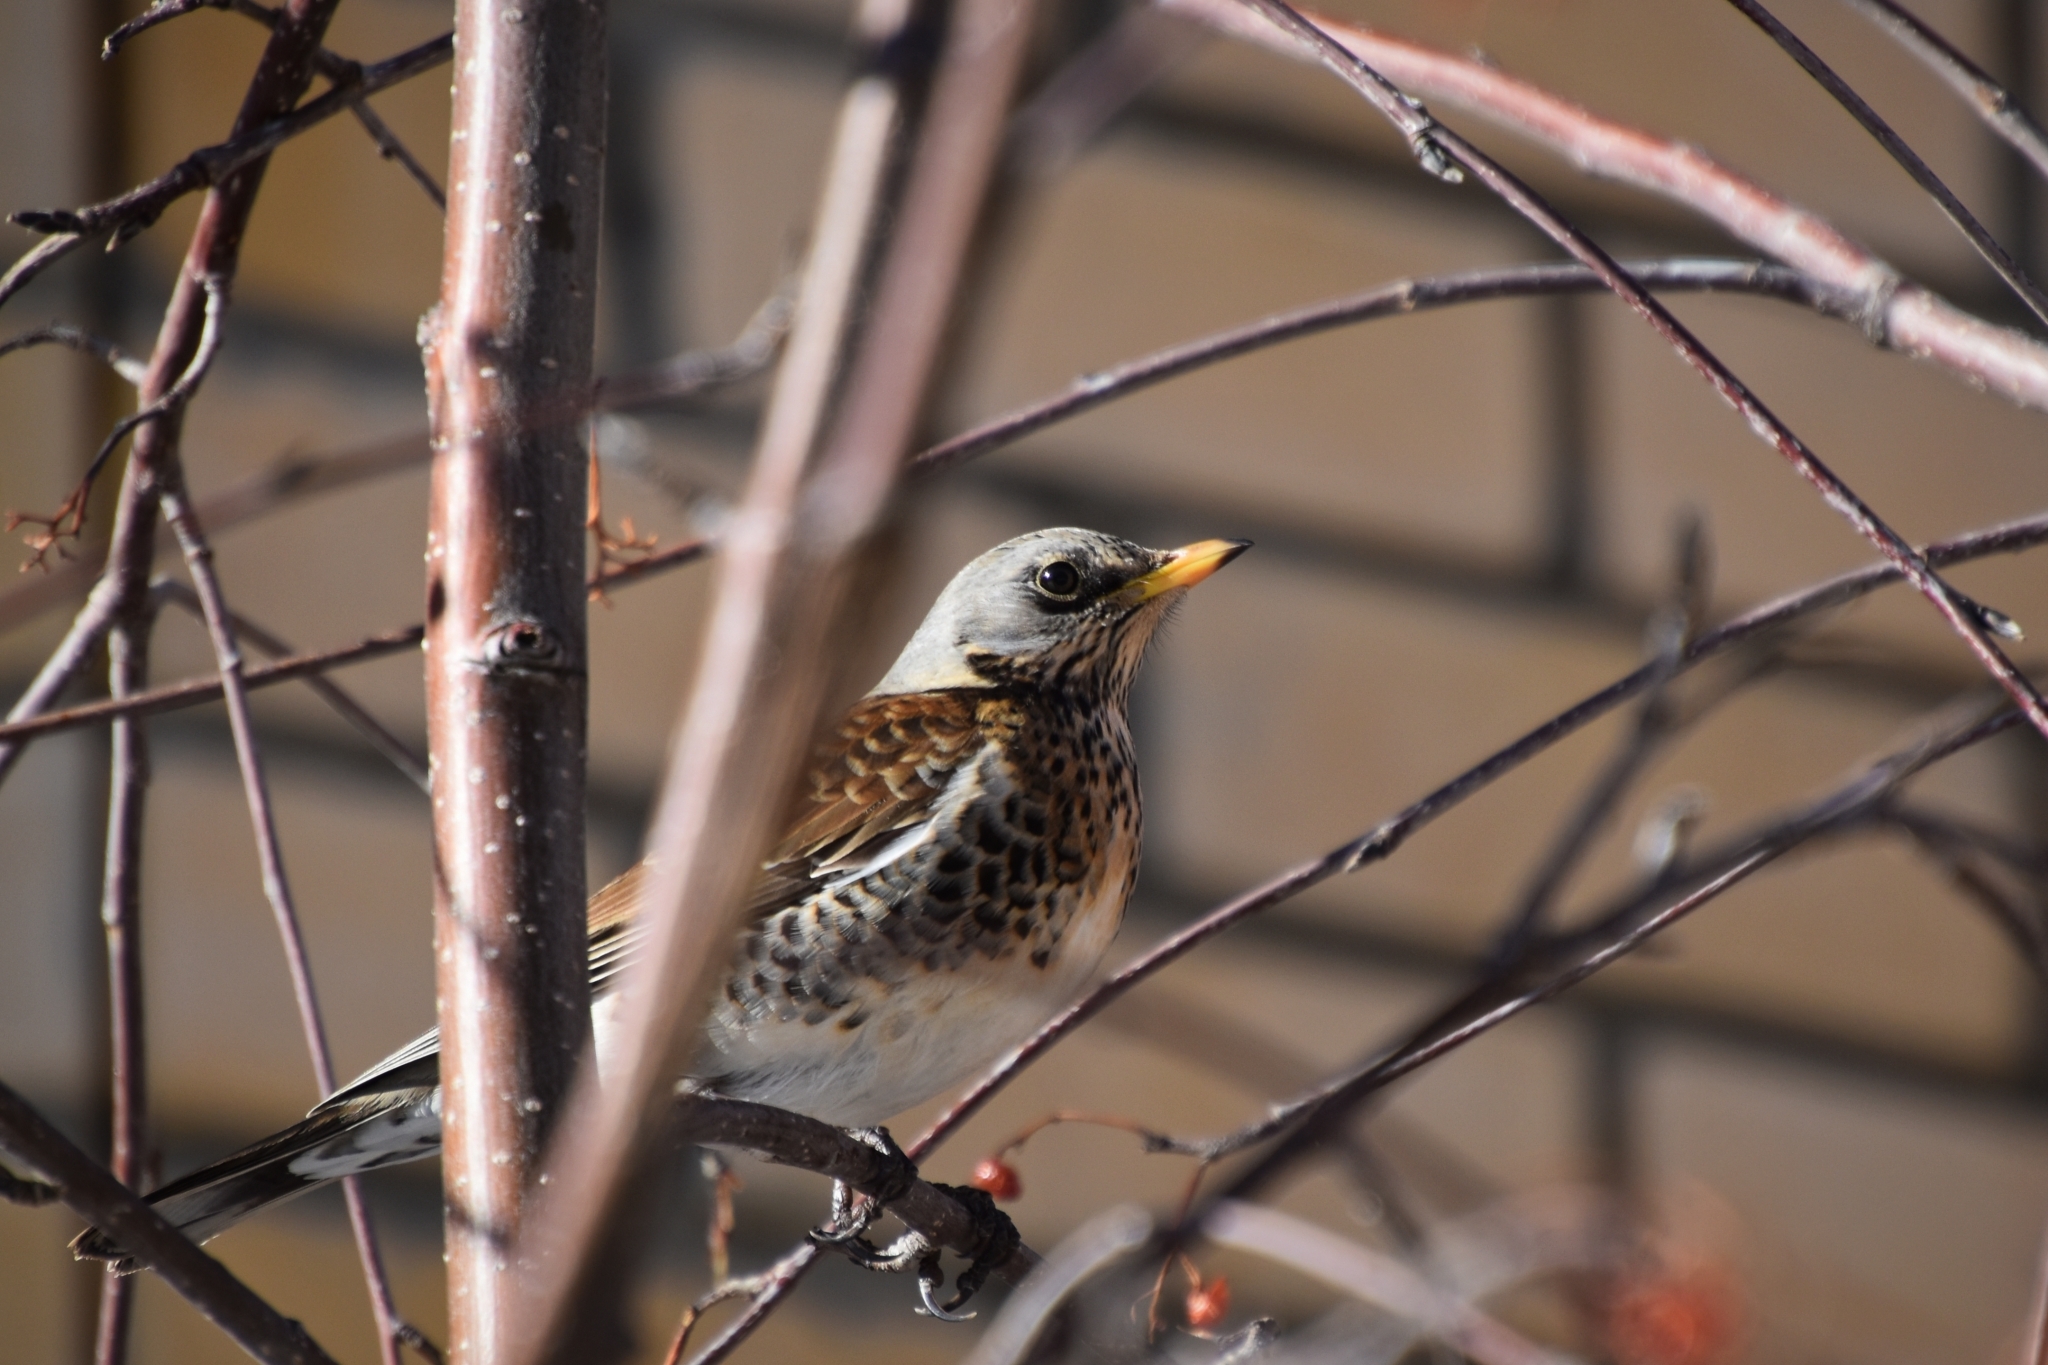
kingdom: Animalia
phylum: Chordata
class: Aves
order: Passeriformes
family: Turdidae
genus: Turdus
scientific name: Turdus pilaris
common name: Fieldfare
